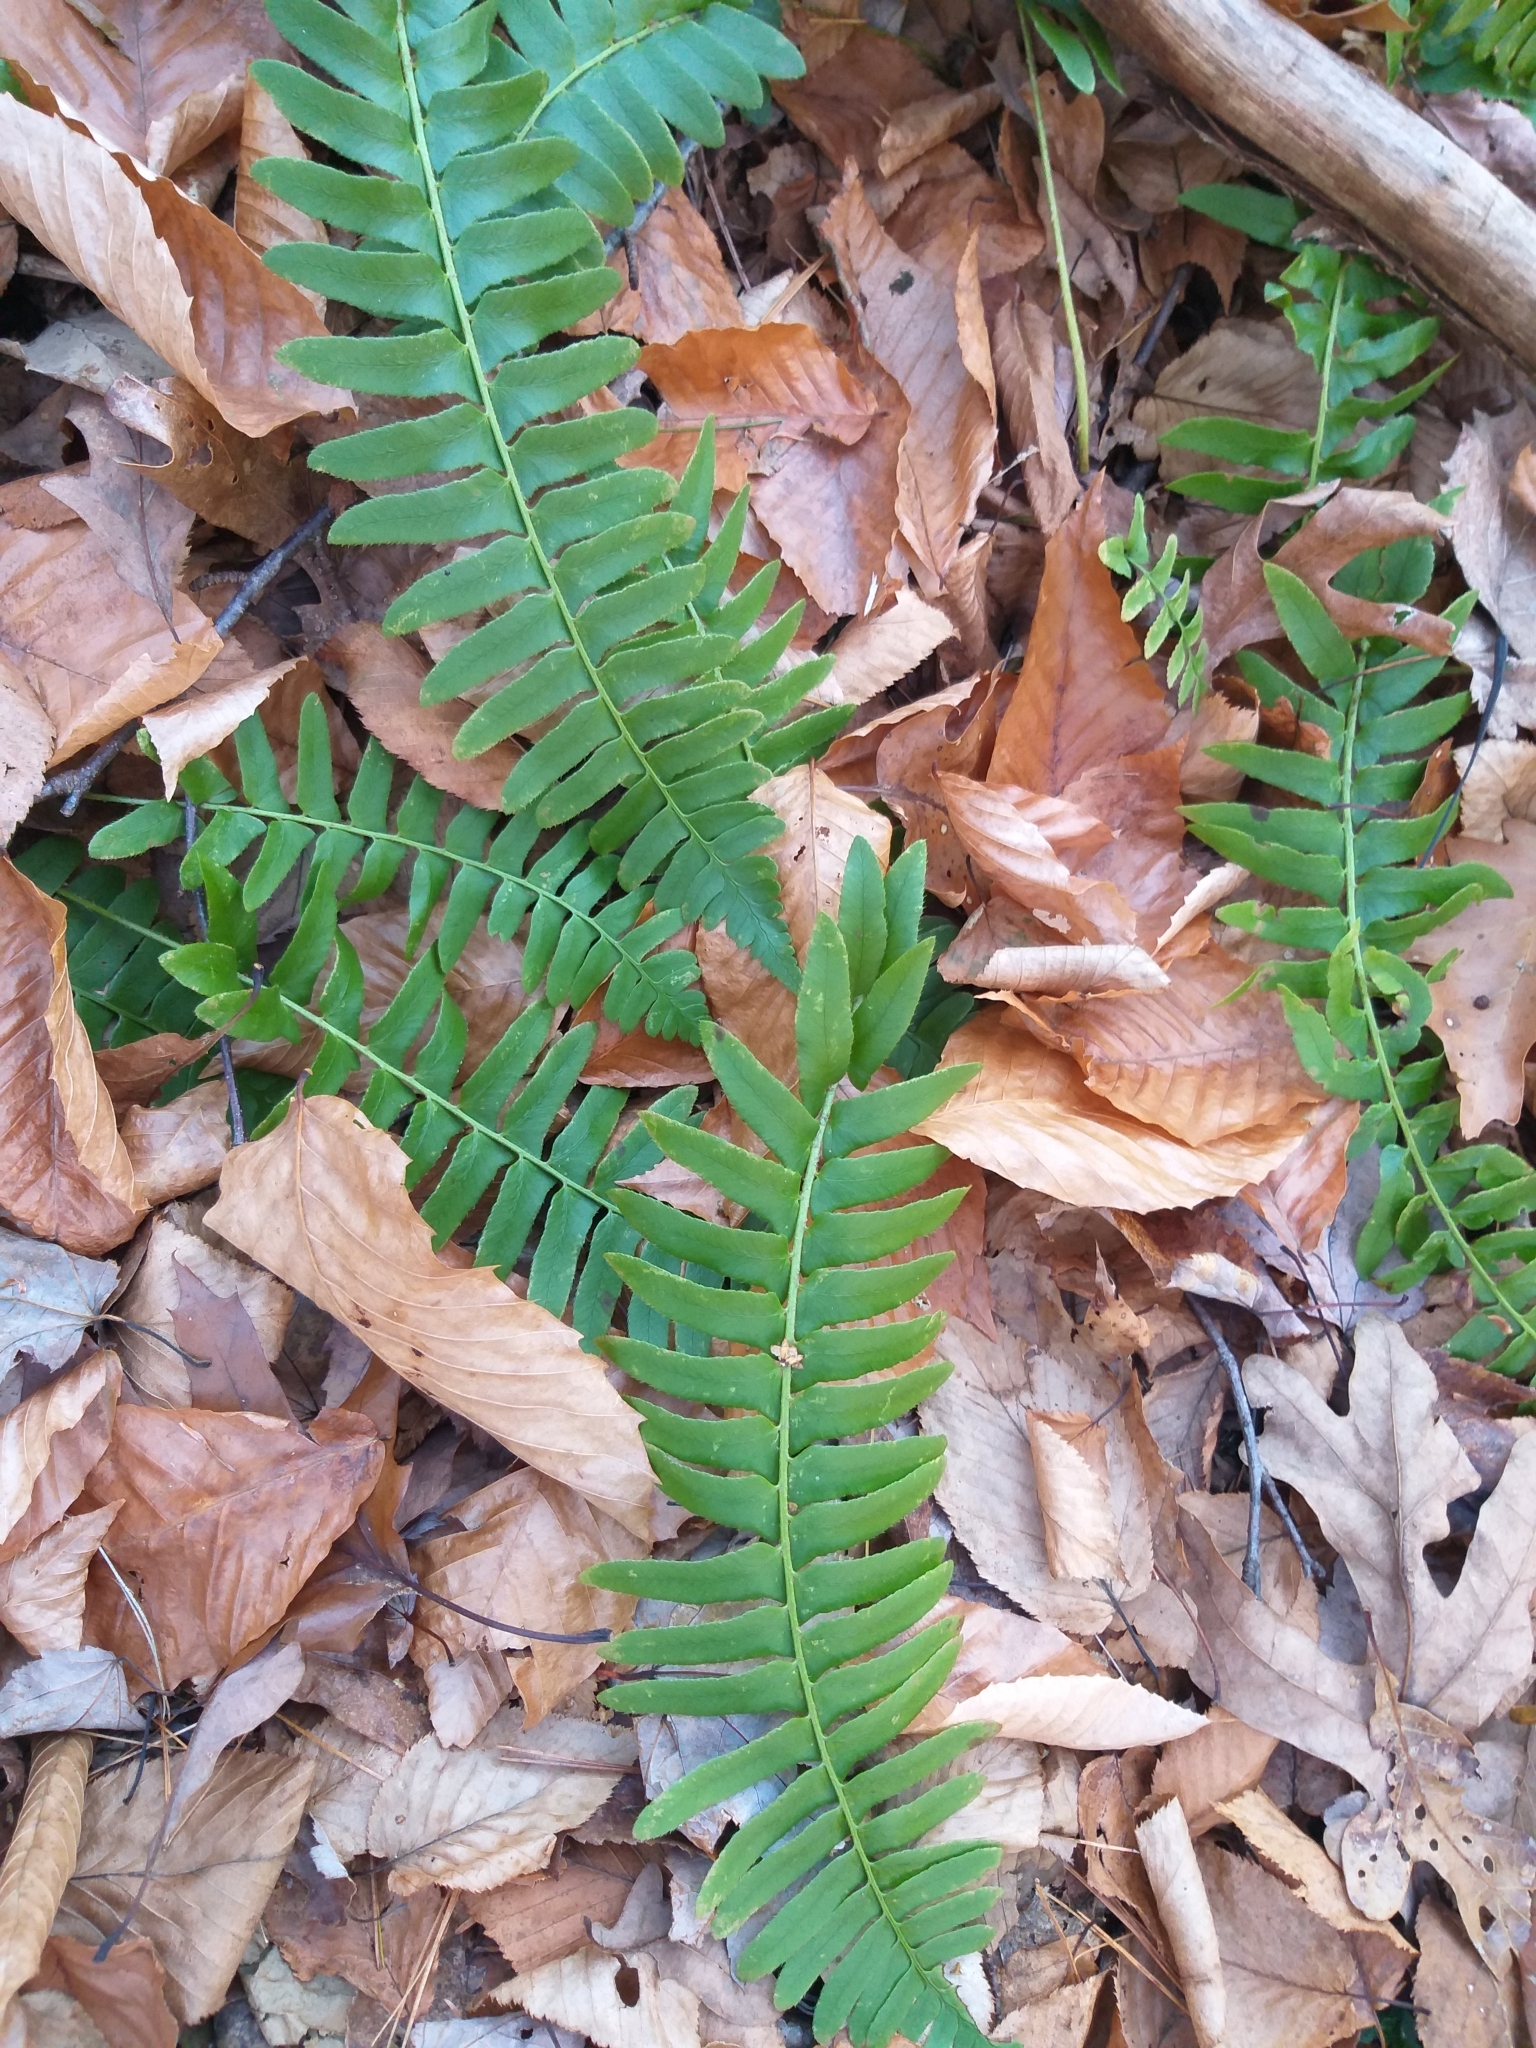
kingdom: Plantae
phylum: Tracheophyta
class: Polypodiopsida
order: Polypodiales
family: Dryopteridaceae
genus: Polystichum
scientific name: Polystichum acrostichoides
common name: Christmas fern
